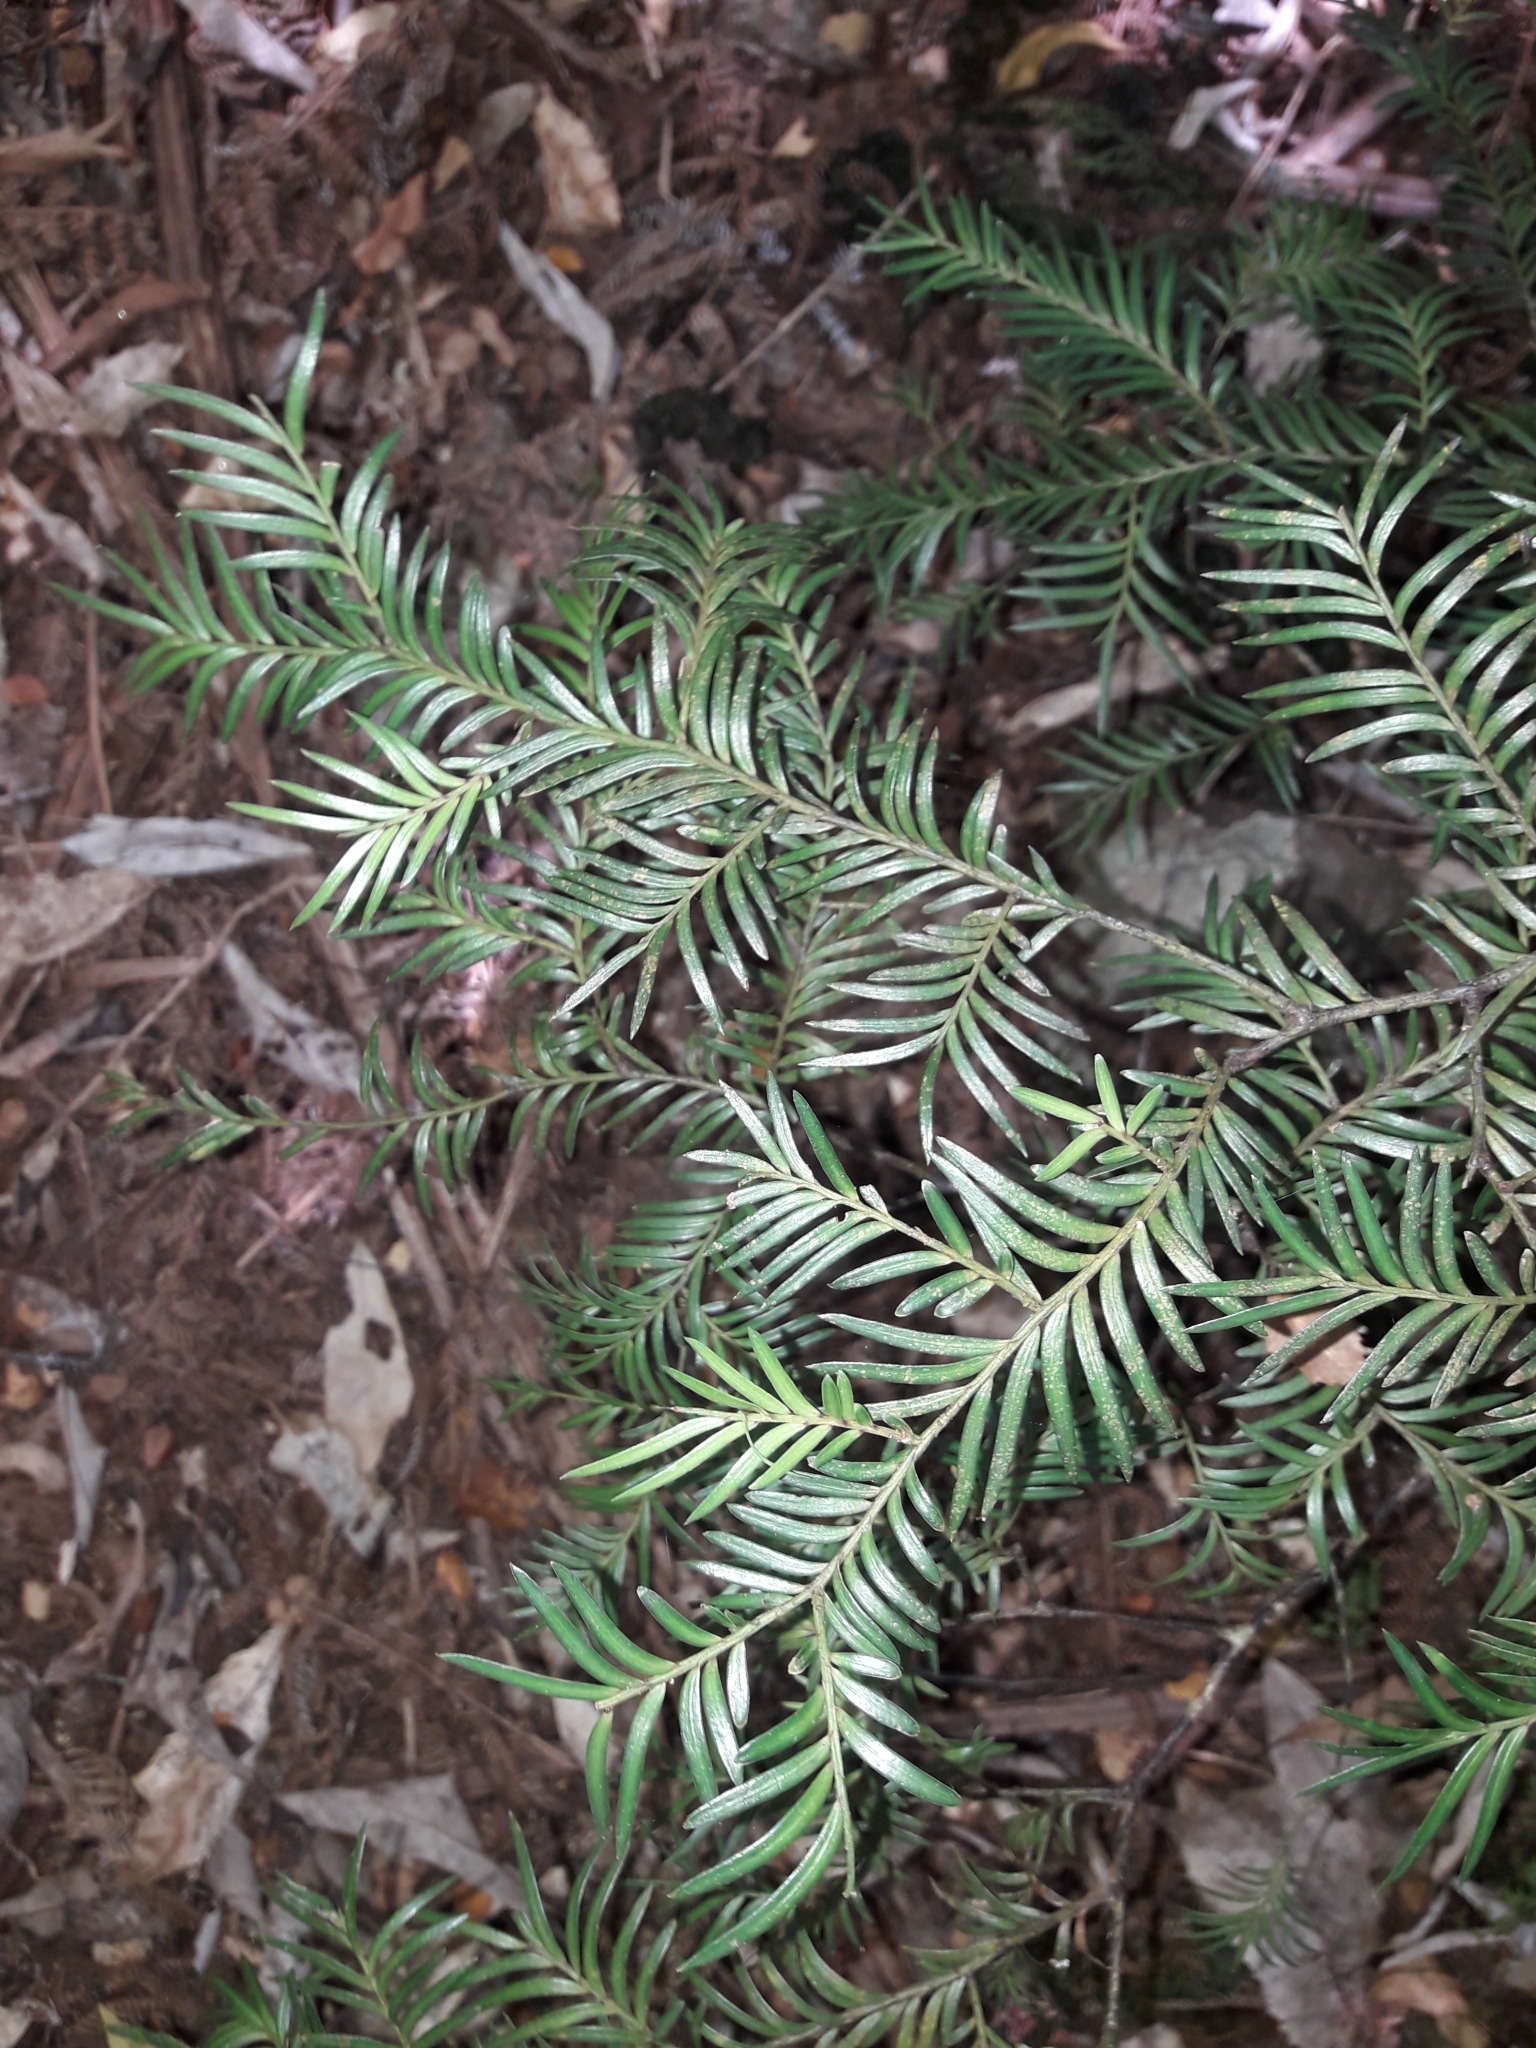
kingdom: Plantae
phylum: Tracheophyta
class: Pinopsida
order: Pinales
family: Podocarpaceae
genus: Prumnopitys
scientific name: Prumnopitys ferruginea
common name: Brown pine
